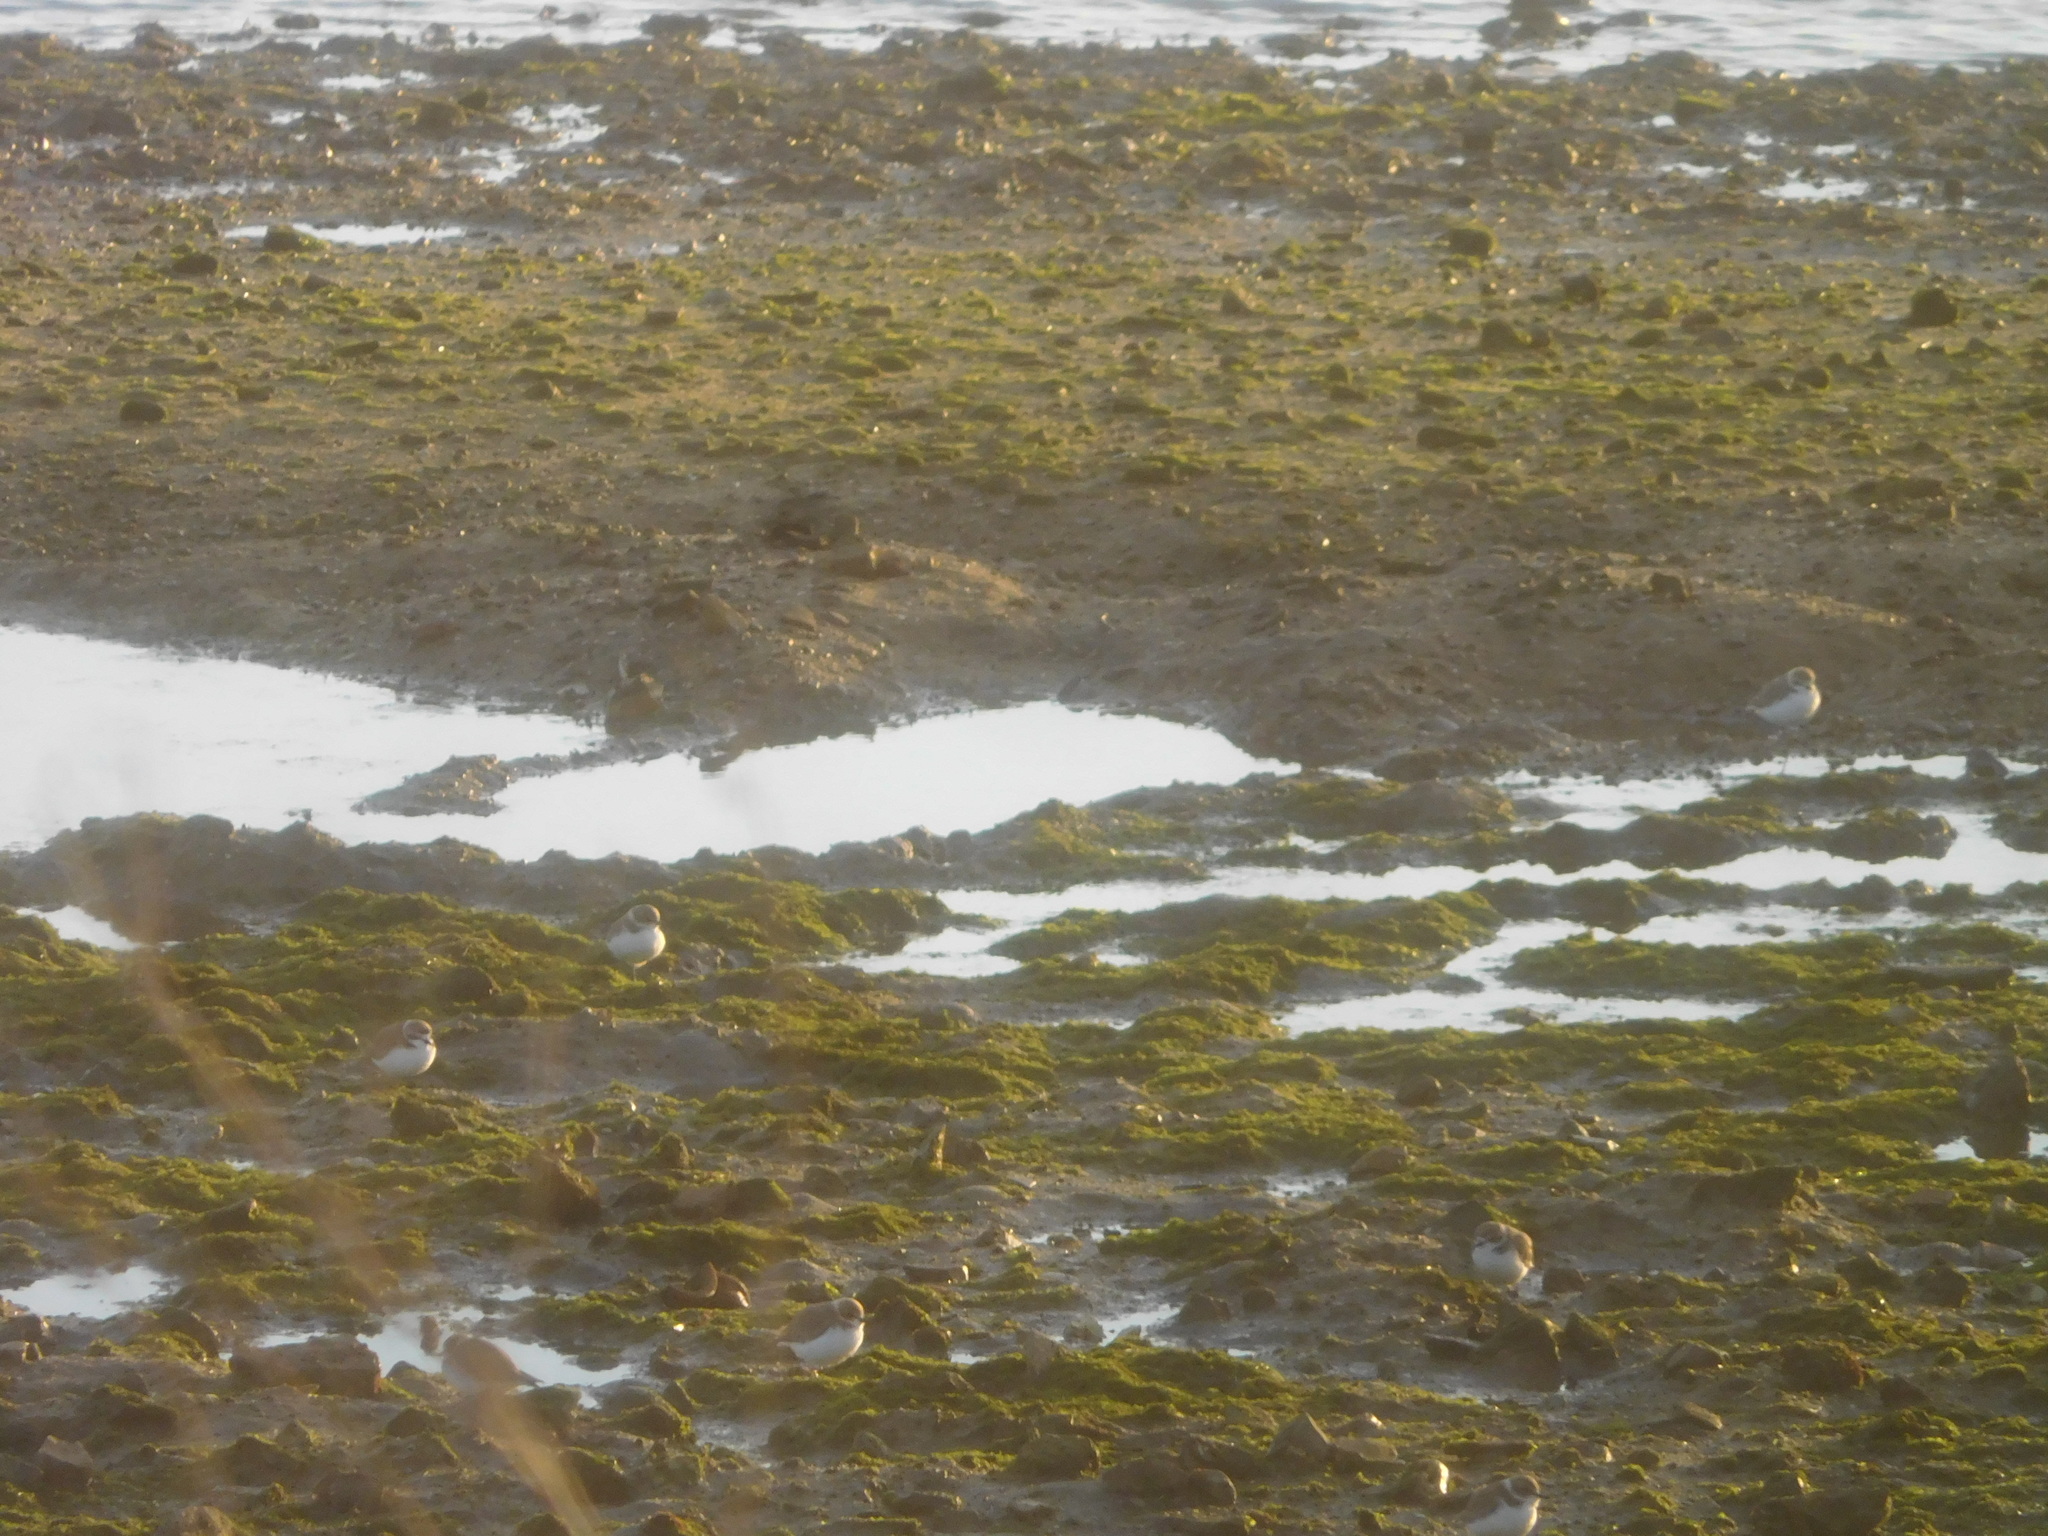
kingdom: Animalia
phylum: Chordata
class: Aves
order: Charadriiformes
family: Charadriidae
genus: Charadrius
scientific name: Charadrius alexandrinus
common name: Kentish plover
